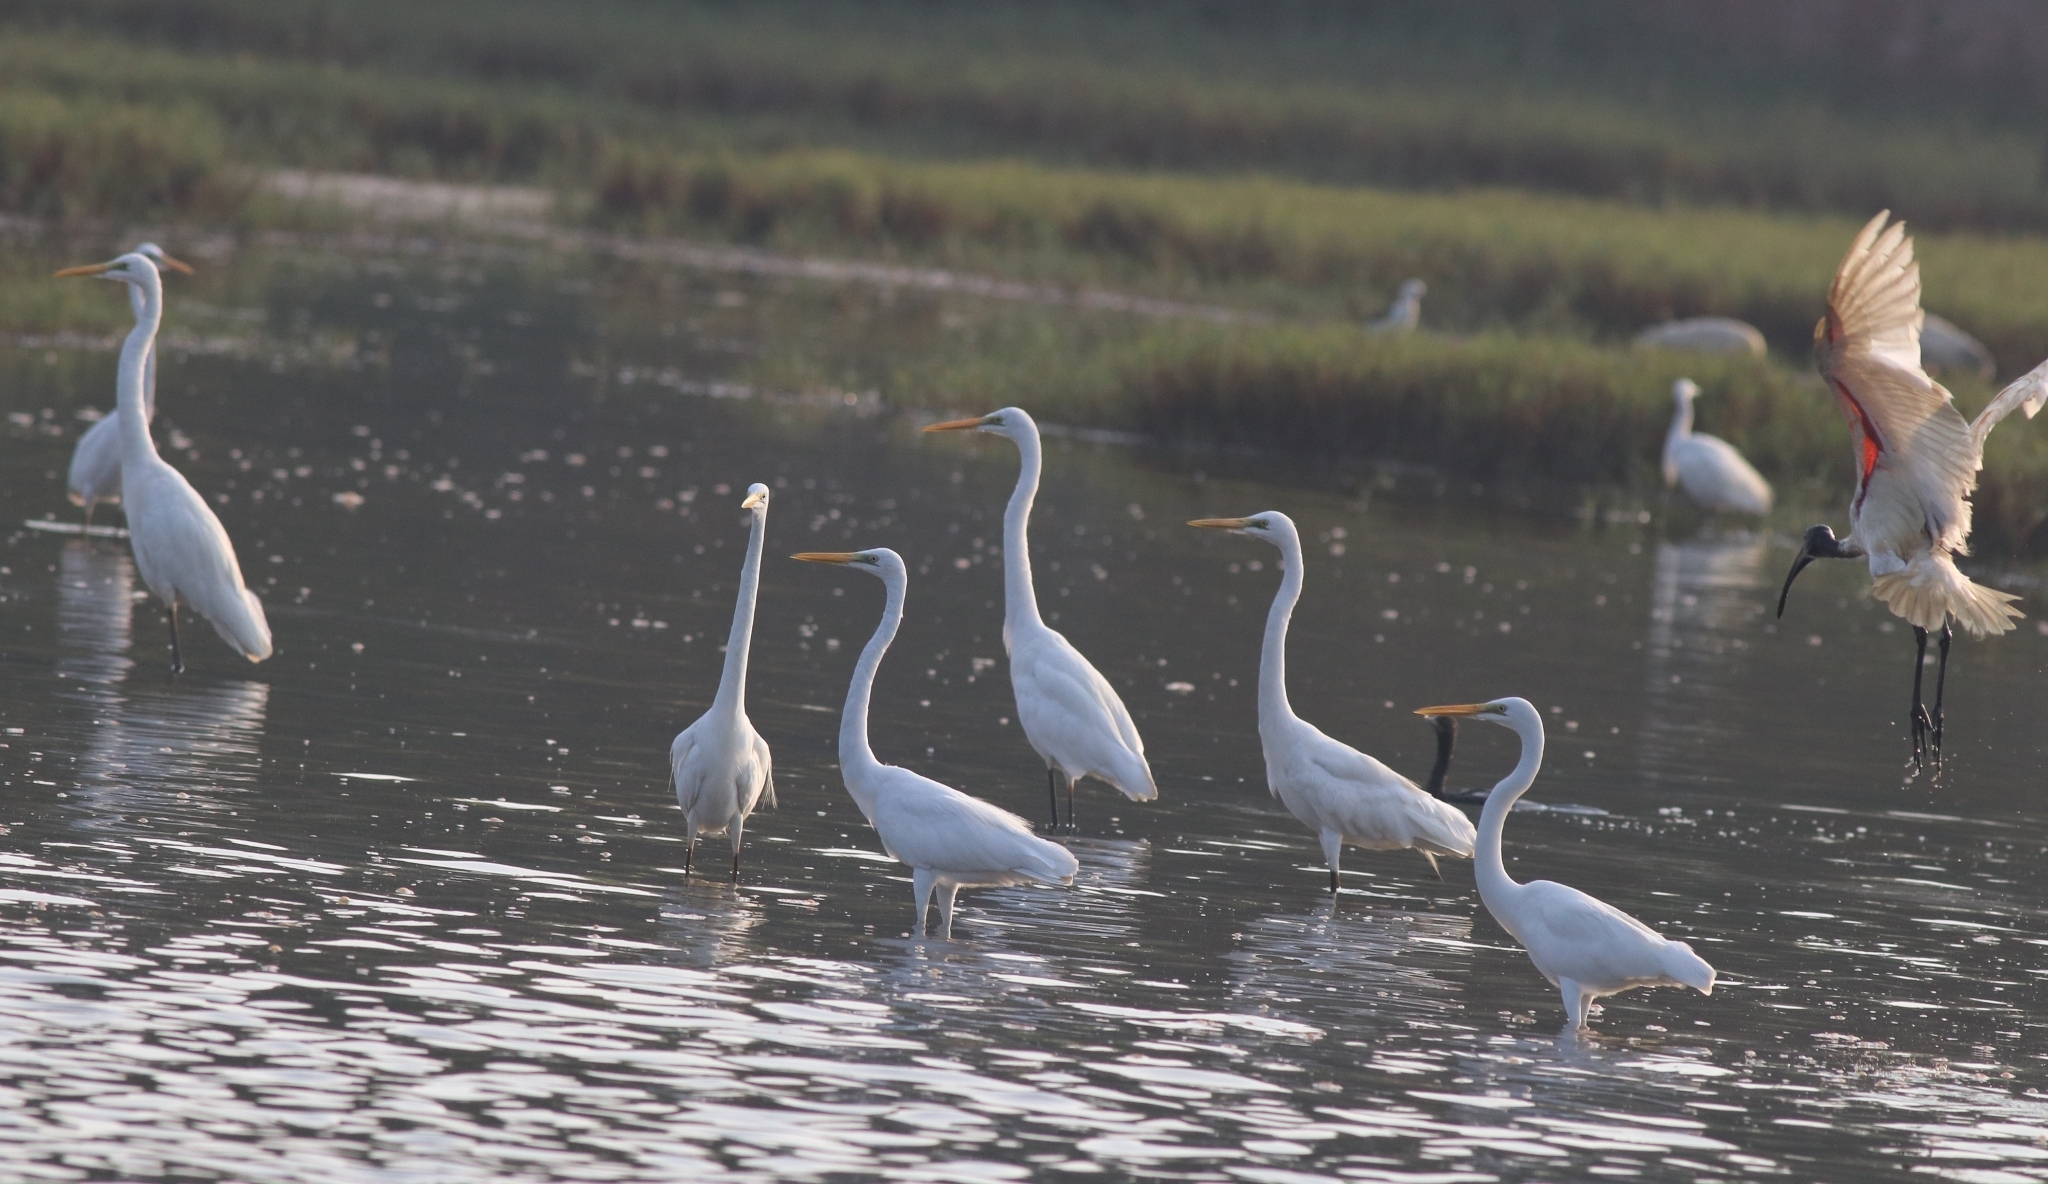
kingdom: Animalia
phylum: Chordata
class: Aves
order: Pelecaniformes
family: Ardeidae
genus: Ardea
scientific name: Ardea alba
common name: Great egret
